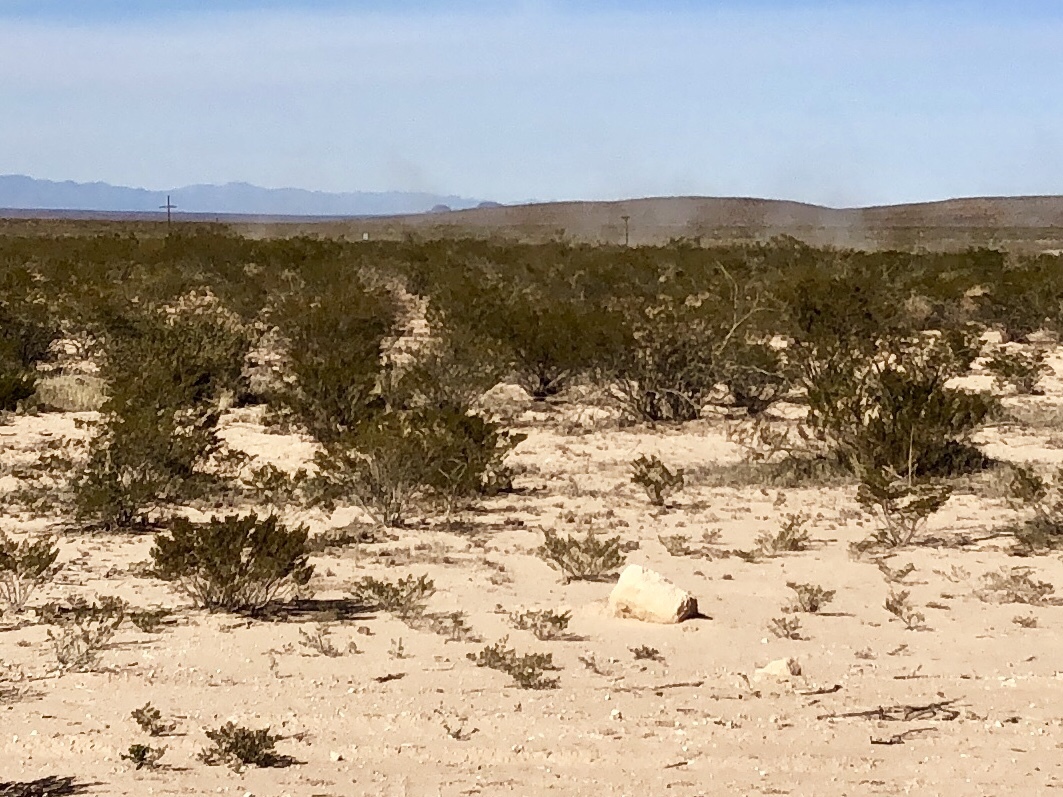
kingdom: Plantae
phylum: Tracheophyta
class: Magnoliopsida
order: Zygophyllales
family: Zygophyllaceae
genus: Larrea
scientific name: Larrea tridentata
